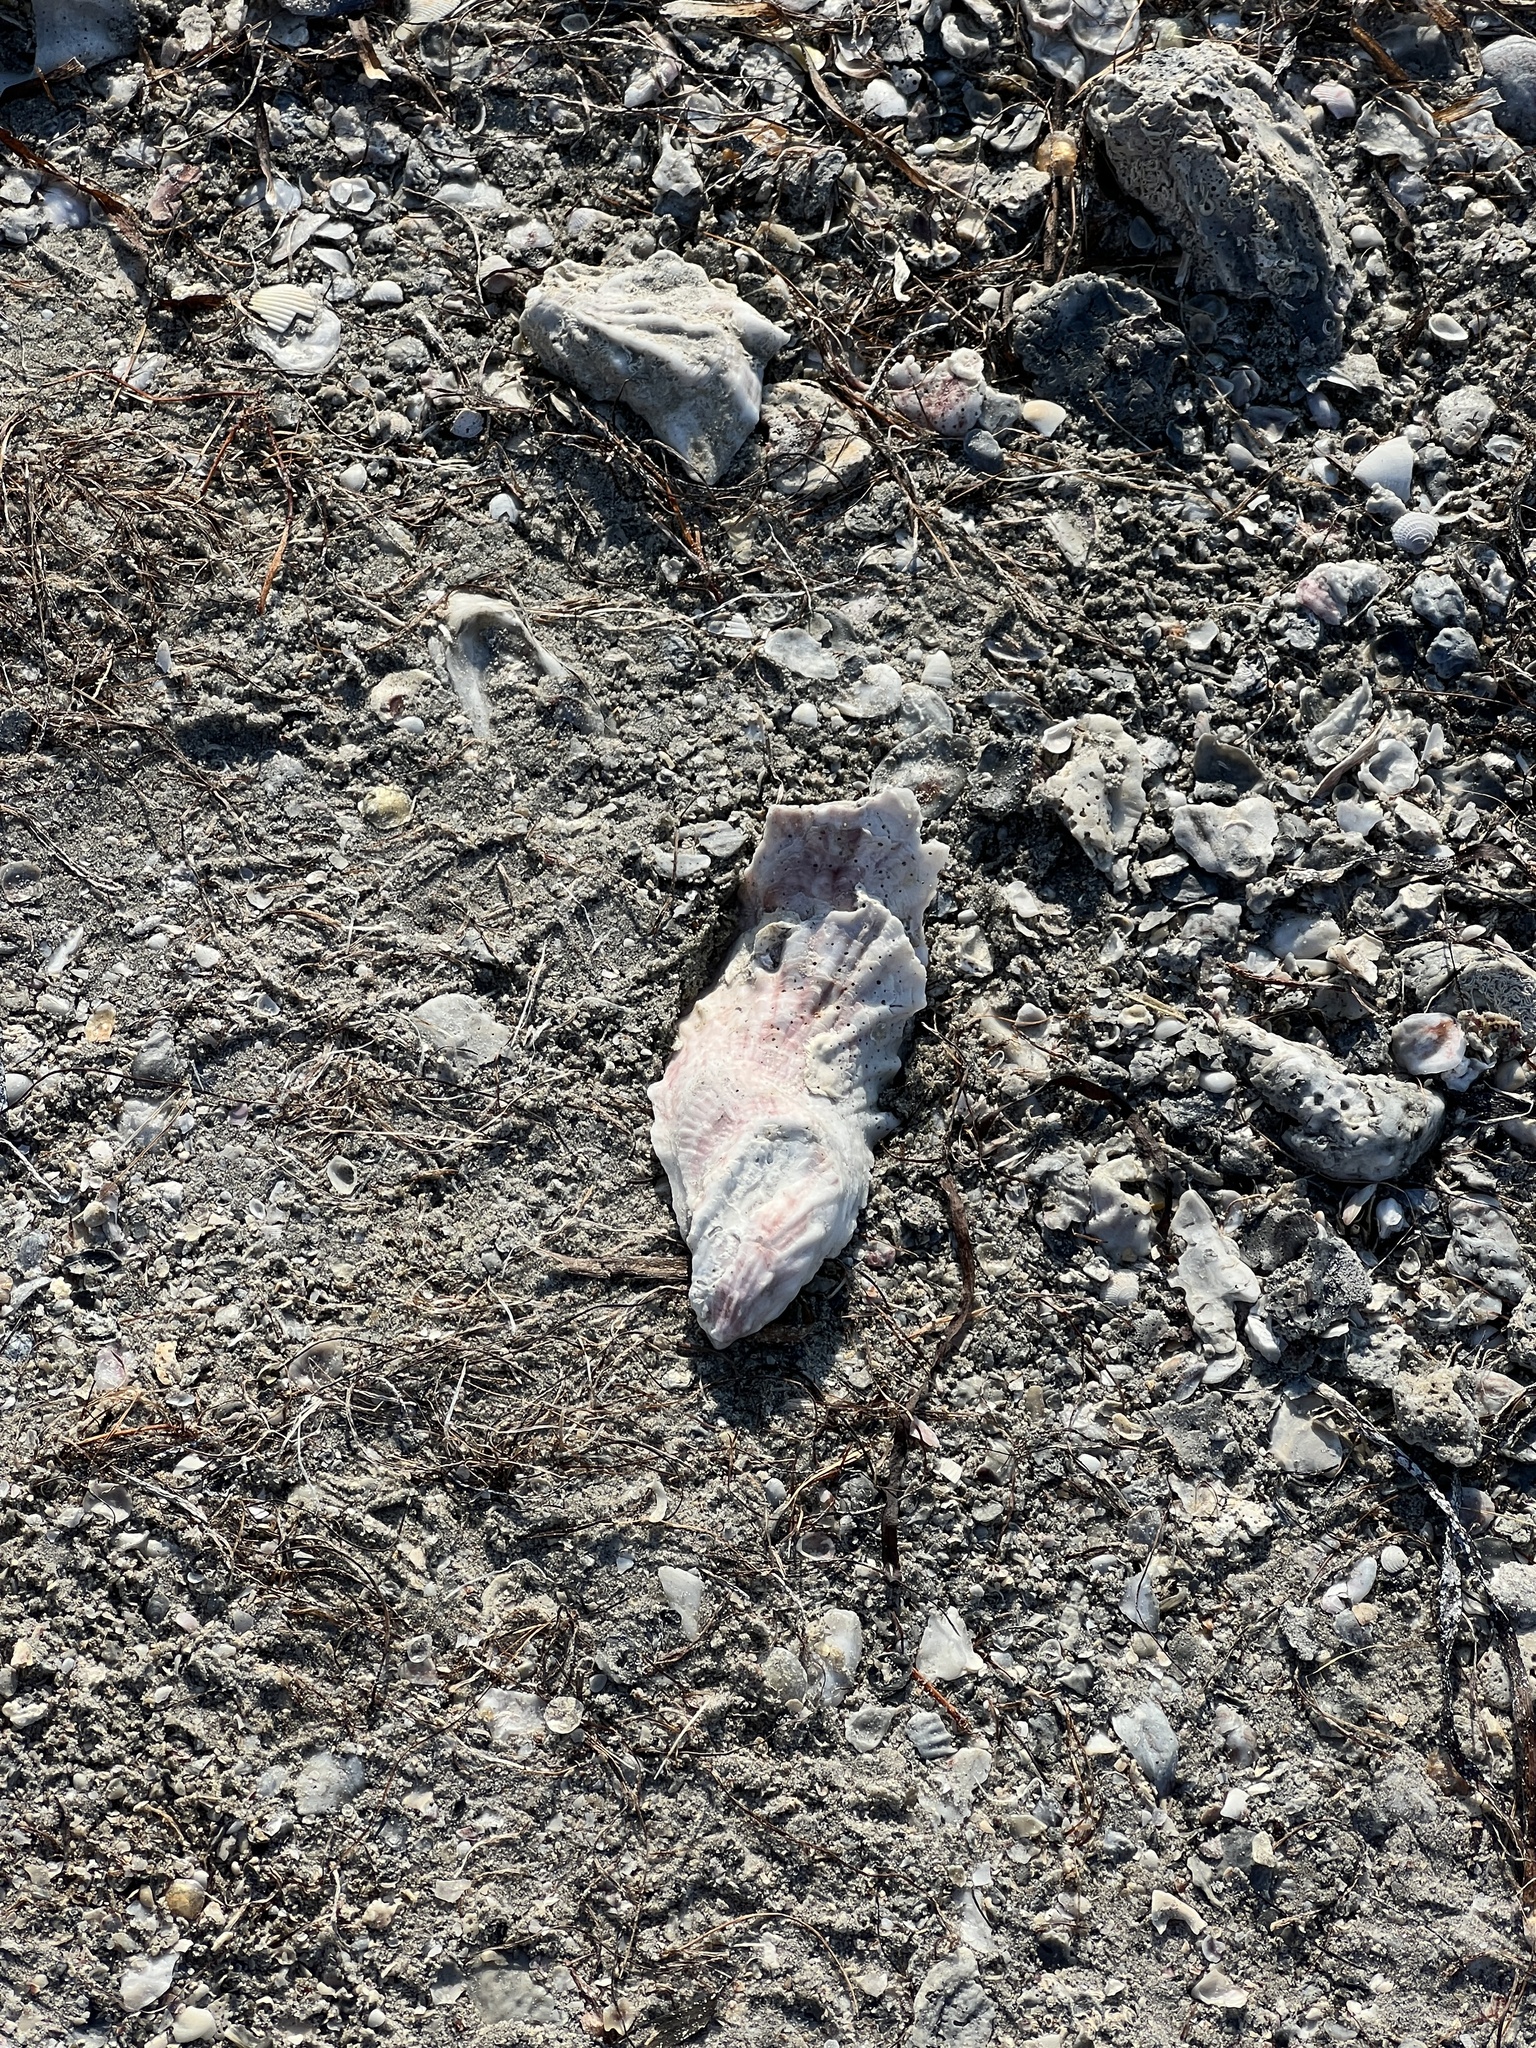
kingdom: Animalia
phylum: Mollusca
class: Bivalvia
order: Ostreida
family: Ostreidae
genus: Crassostrea
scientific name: Crassostrea virginica
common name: American oyster
